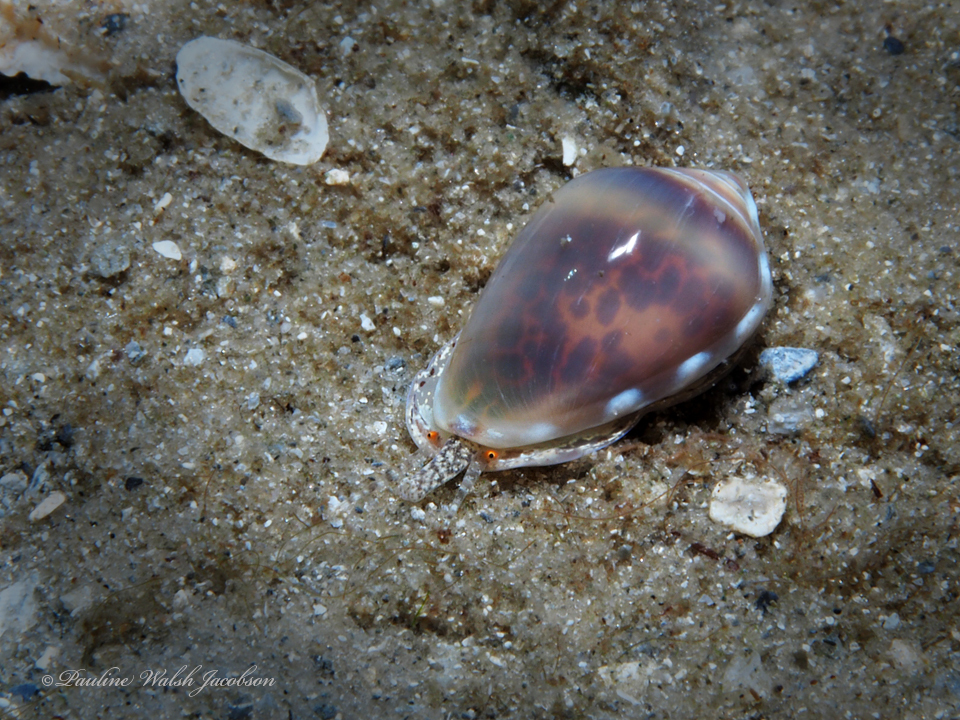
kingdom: Animalia
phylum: Mollusca
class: Gastropoda
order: Neogastropoda
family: Marginellidae
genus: Prunum
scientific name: Prunum apicinum
